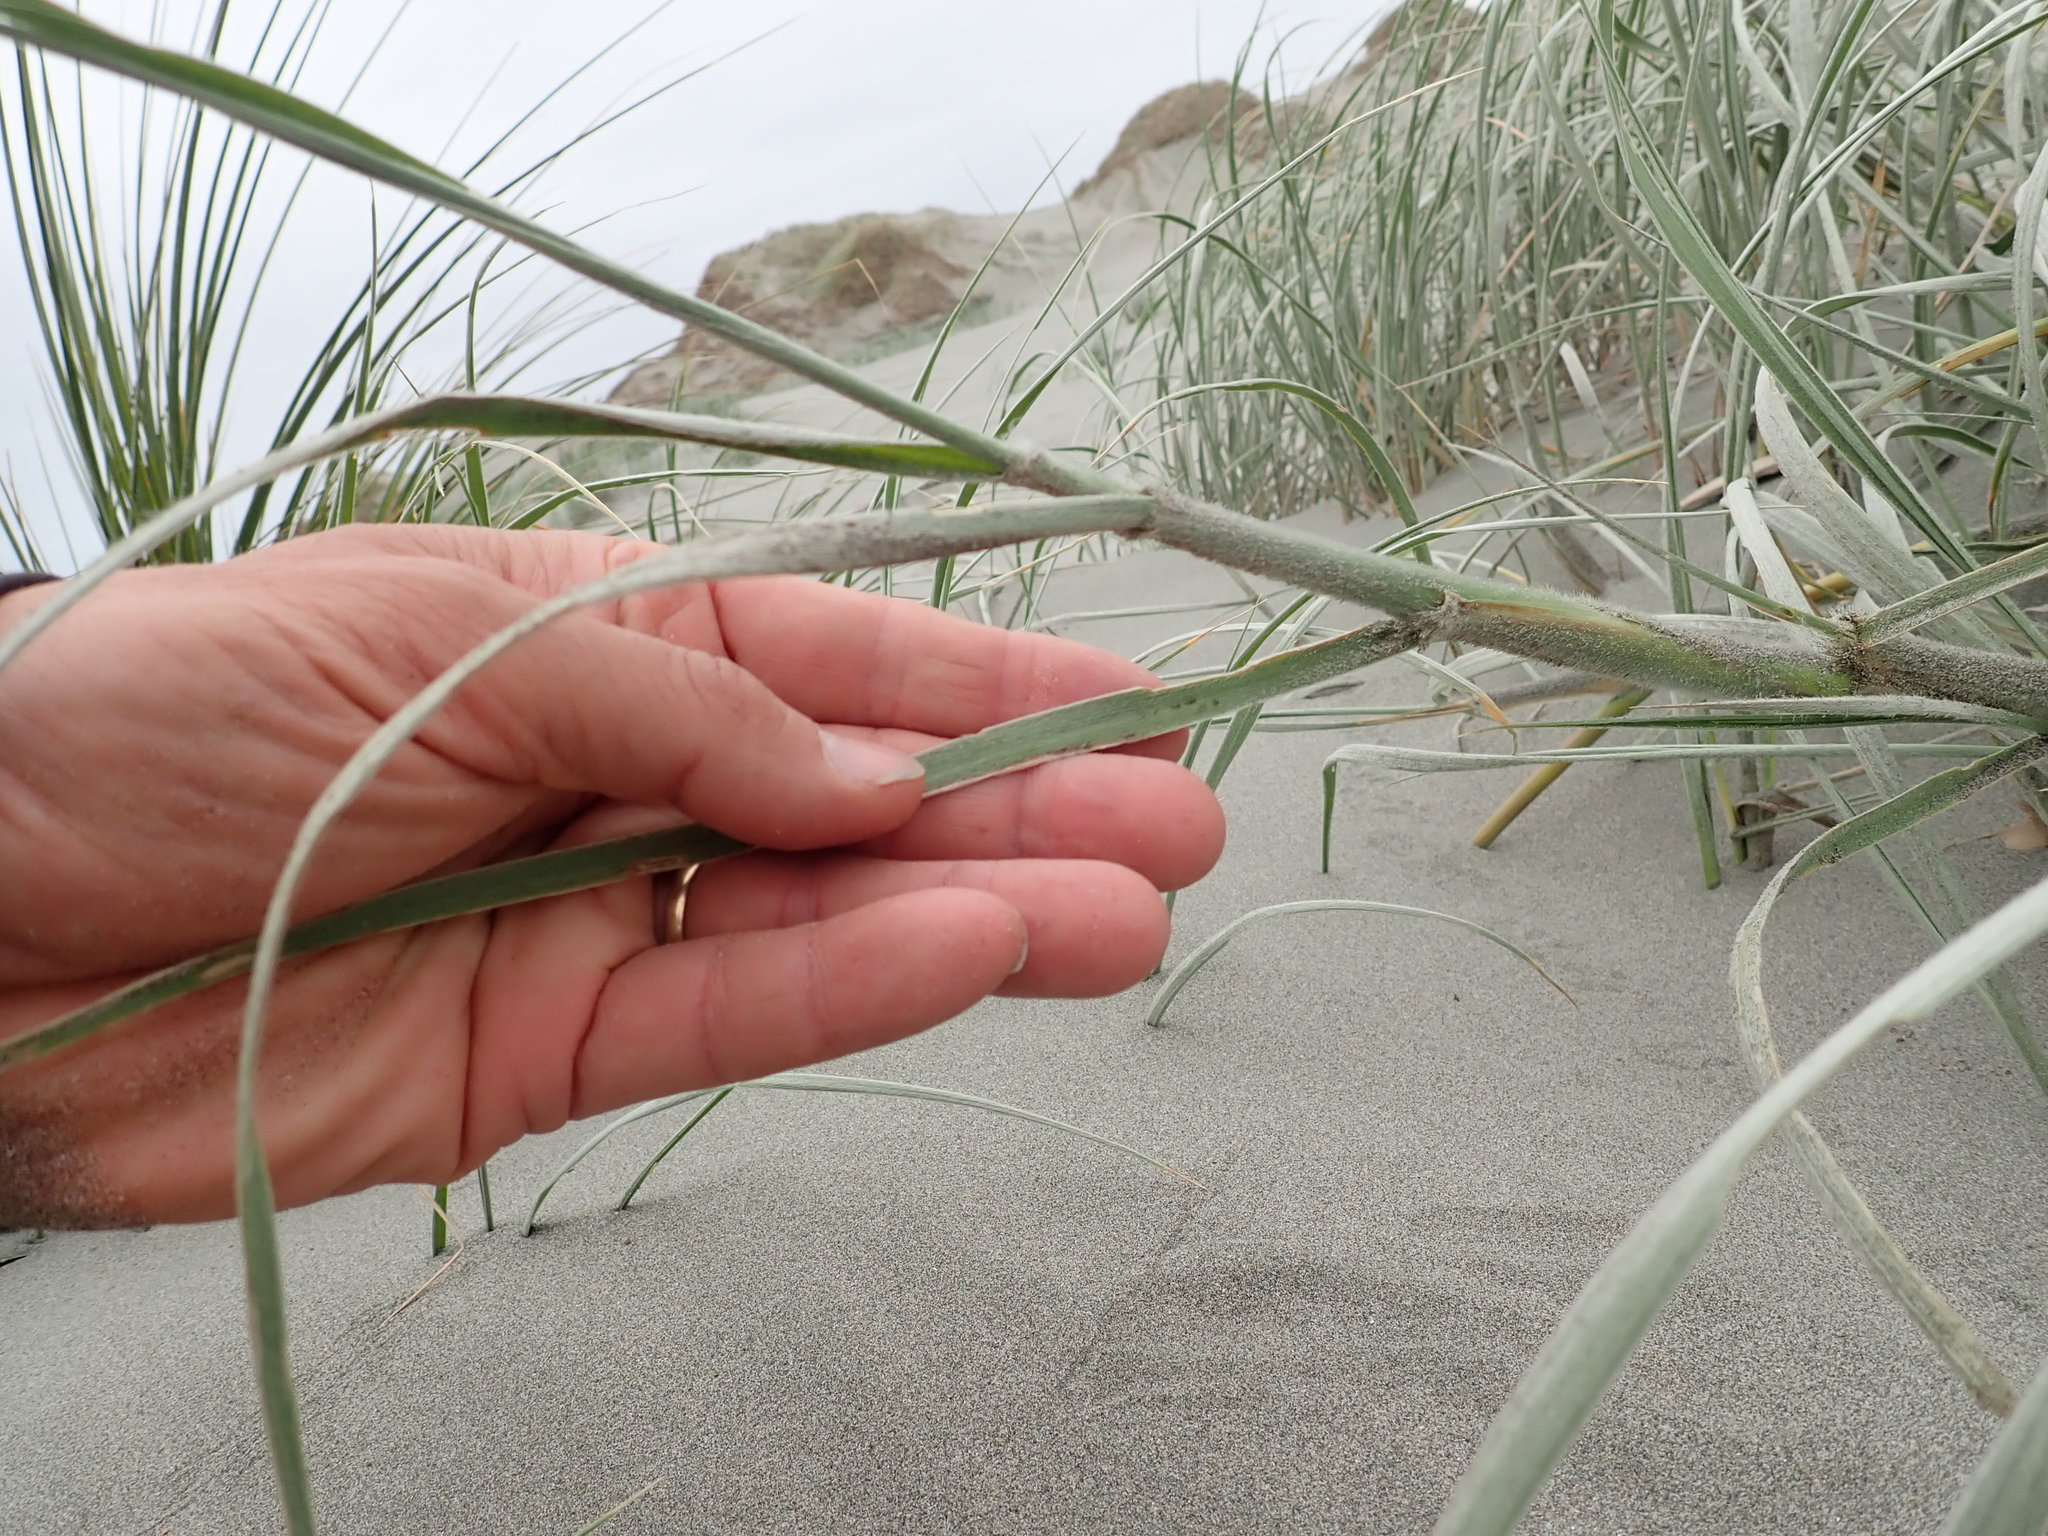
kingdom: Plantae
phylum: Tracheophyta
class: Liliopsida
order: Poales
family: Poaceae
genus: Spinifex
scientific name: Spinifex sericeus
